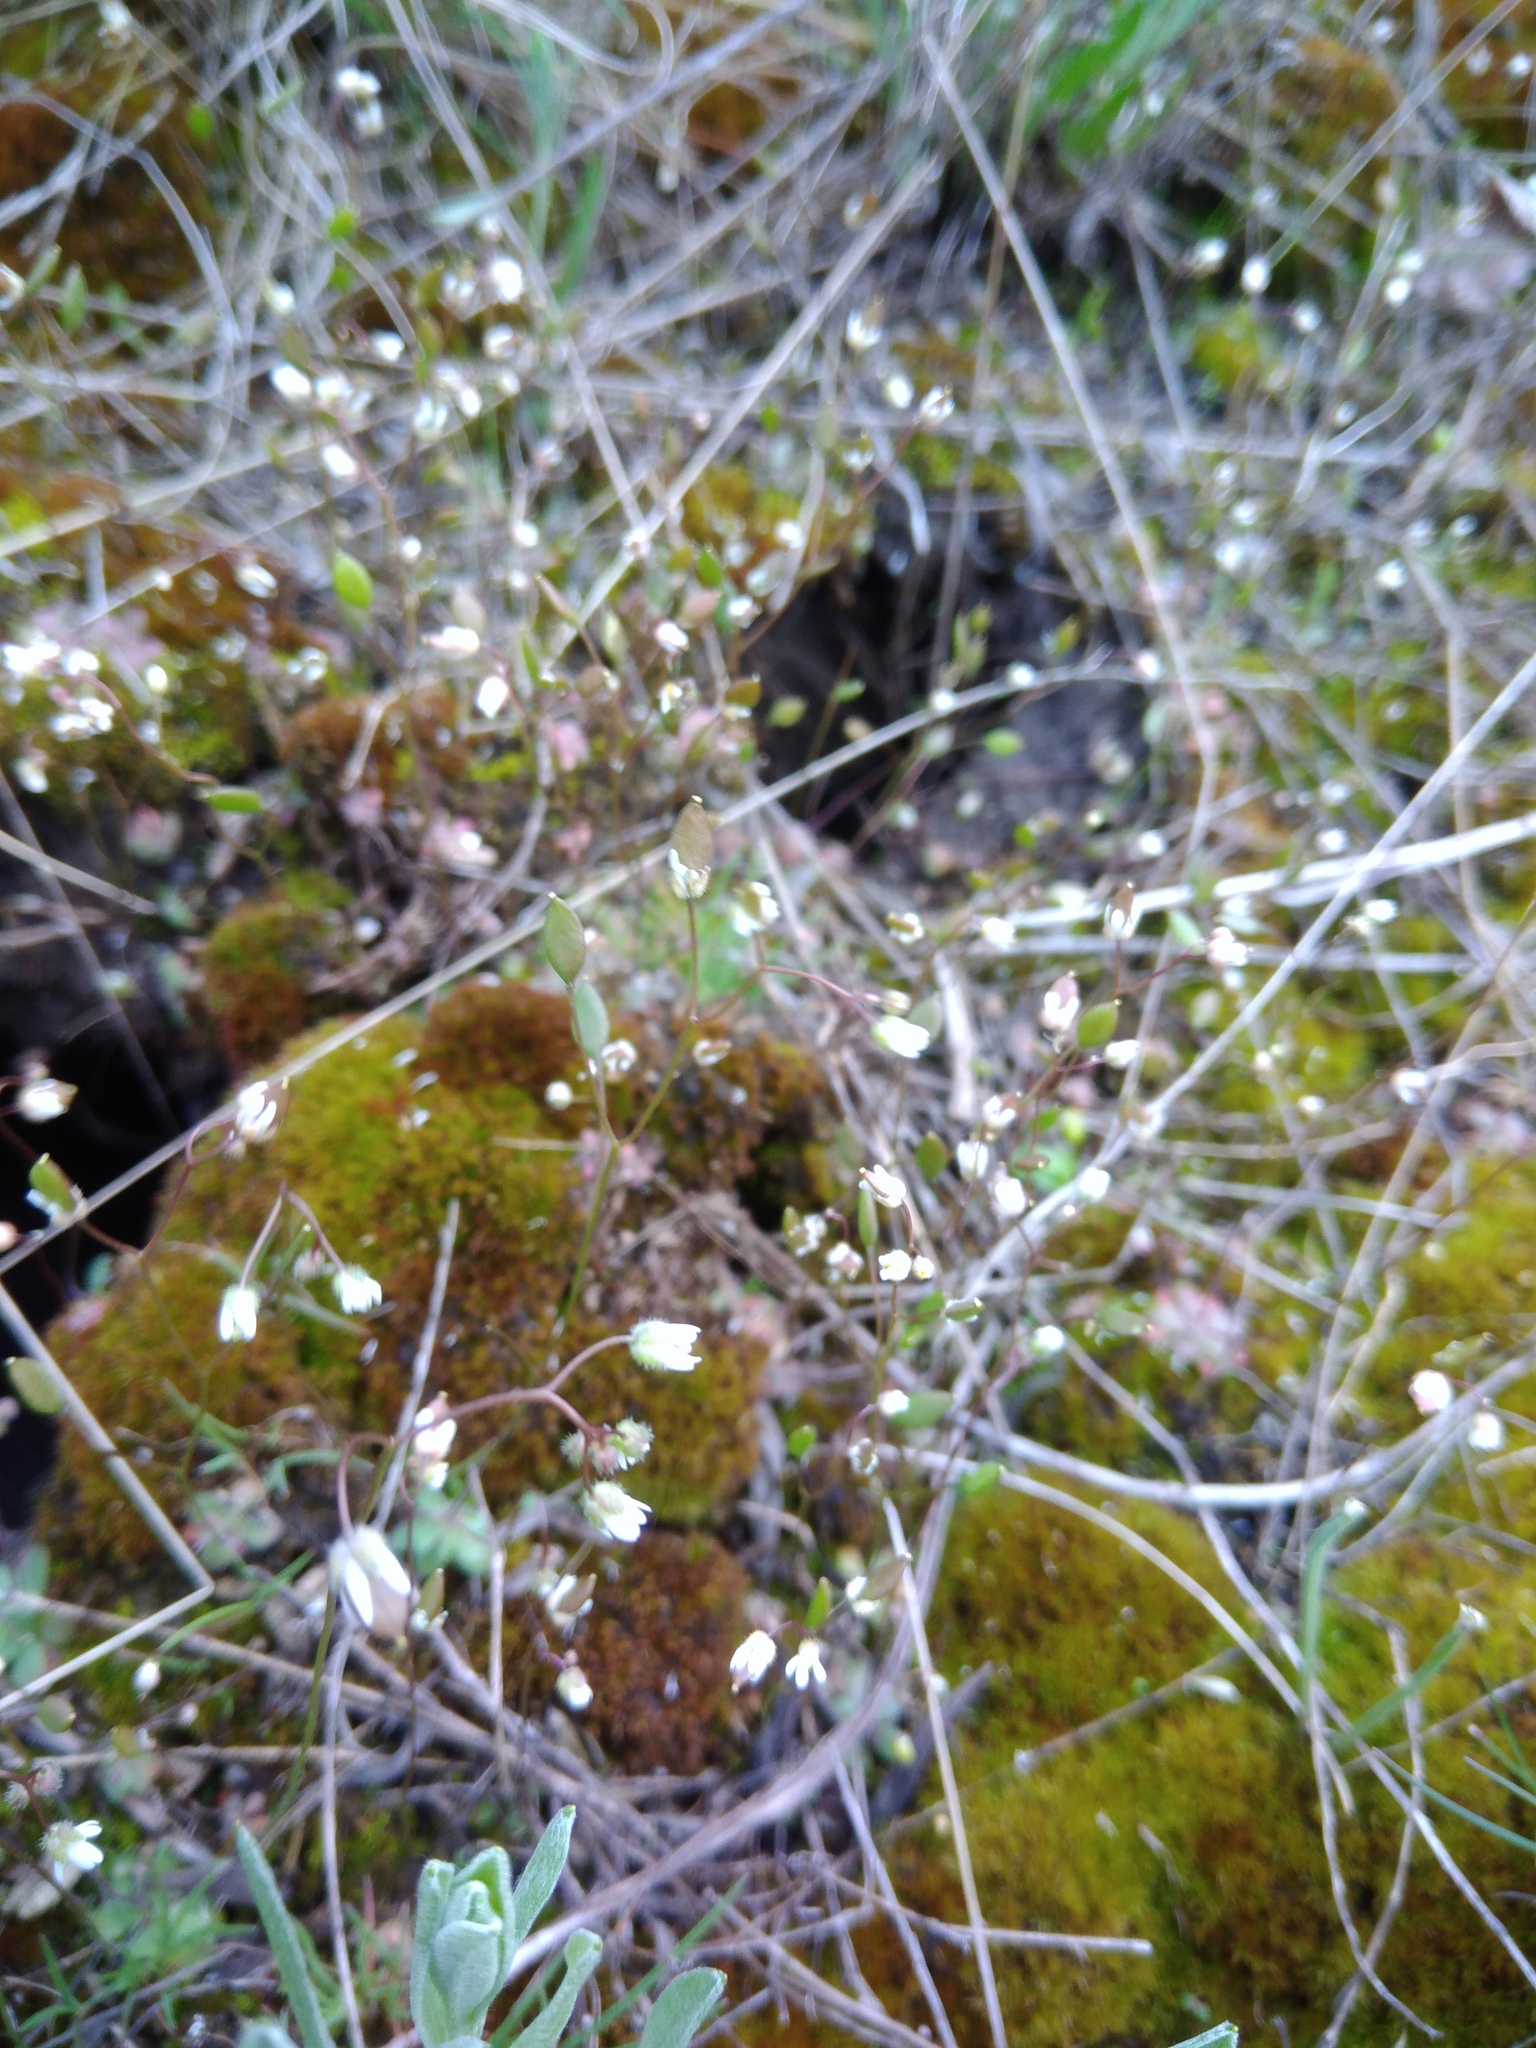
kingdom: Plantae
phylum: Tracheophyta
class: Magnoliopsida
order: Brassicales
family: Brassicaceae
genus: Draba
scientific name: Draba verna
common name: Spring draba
